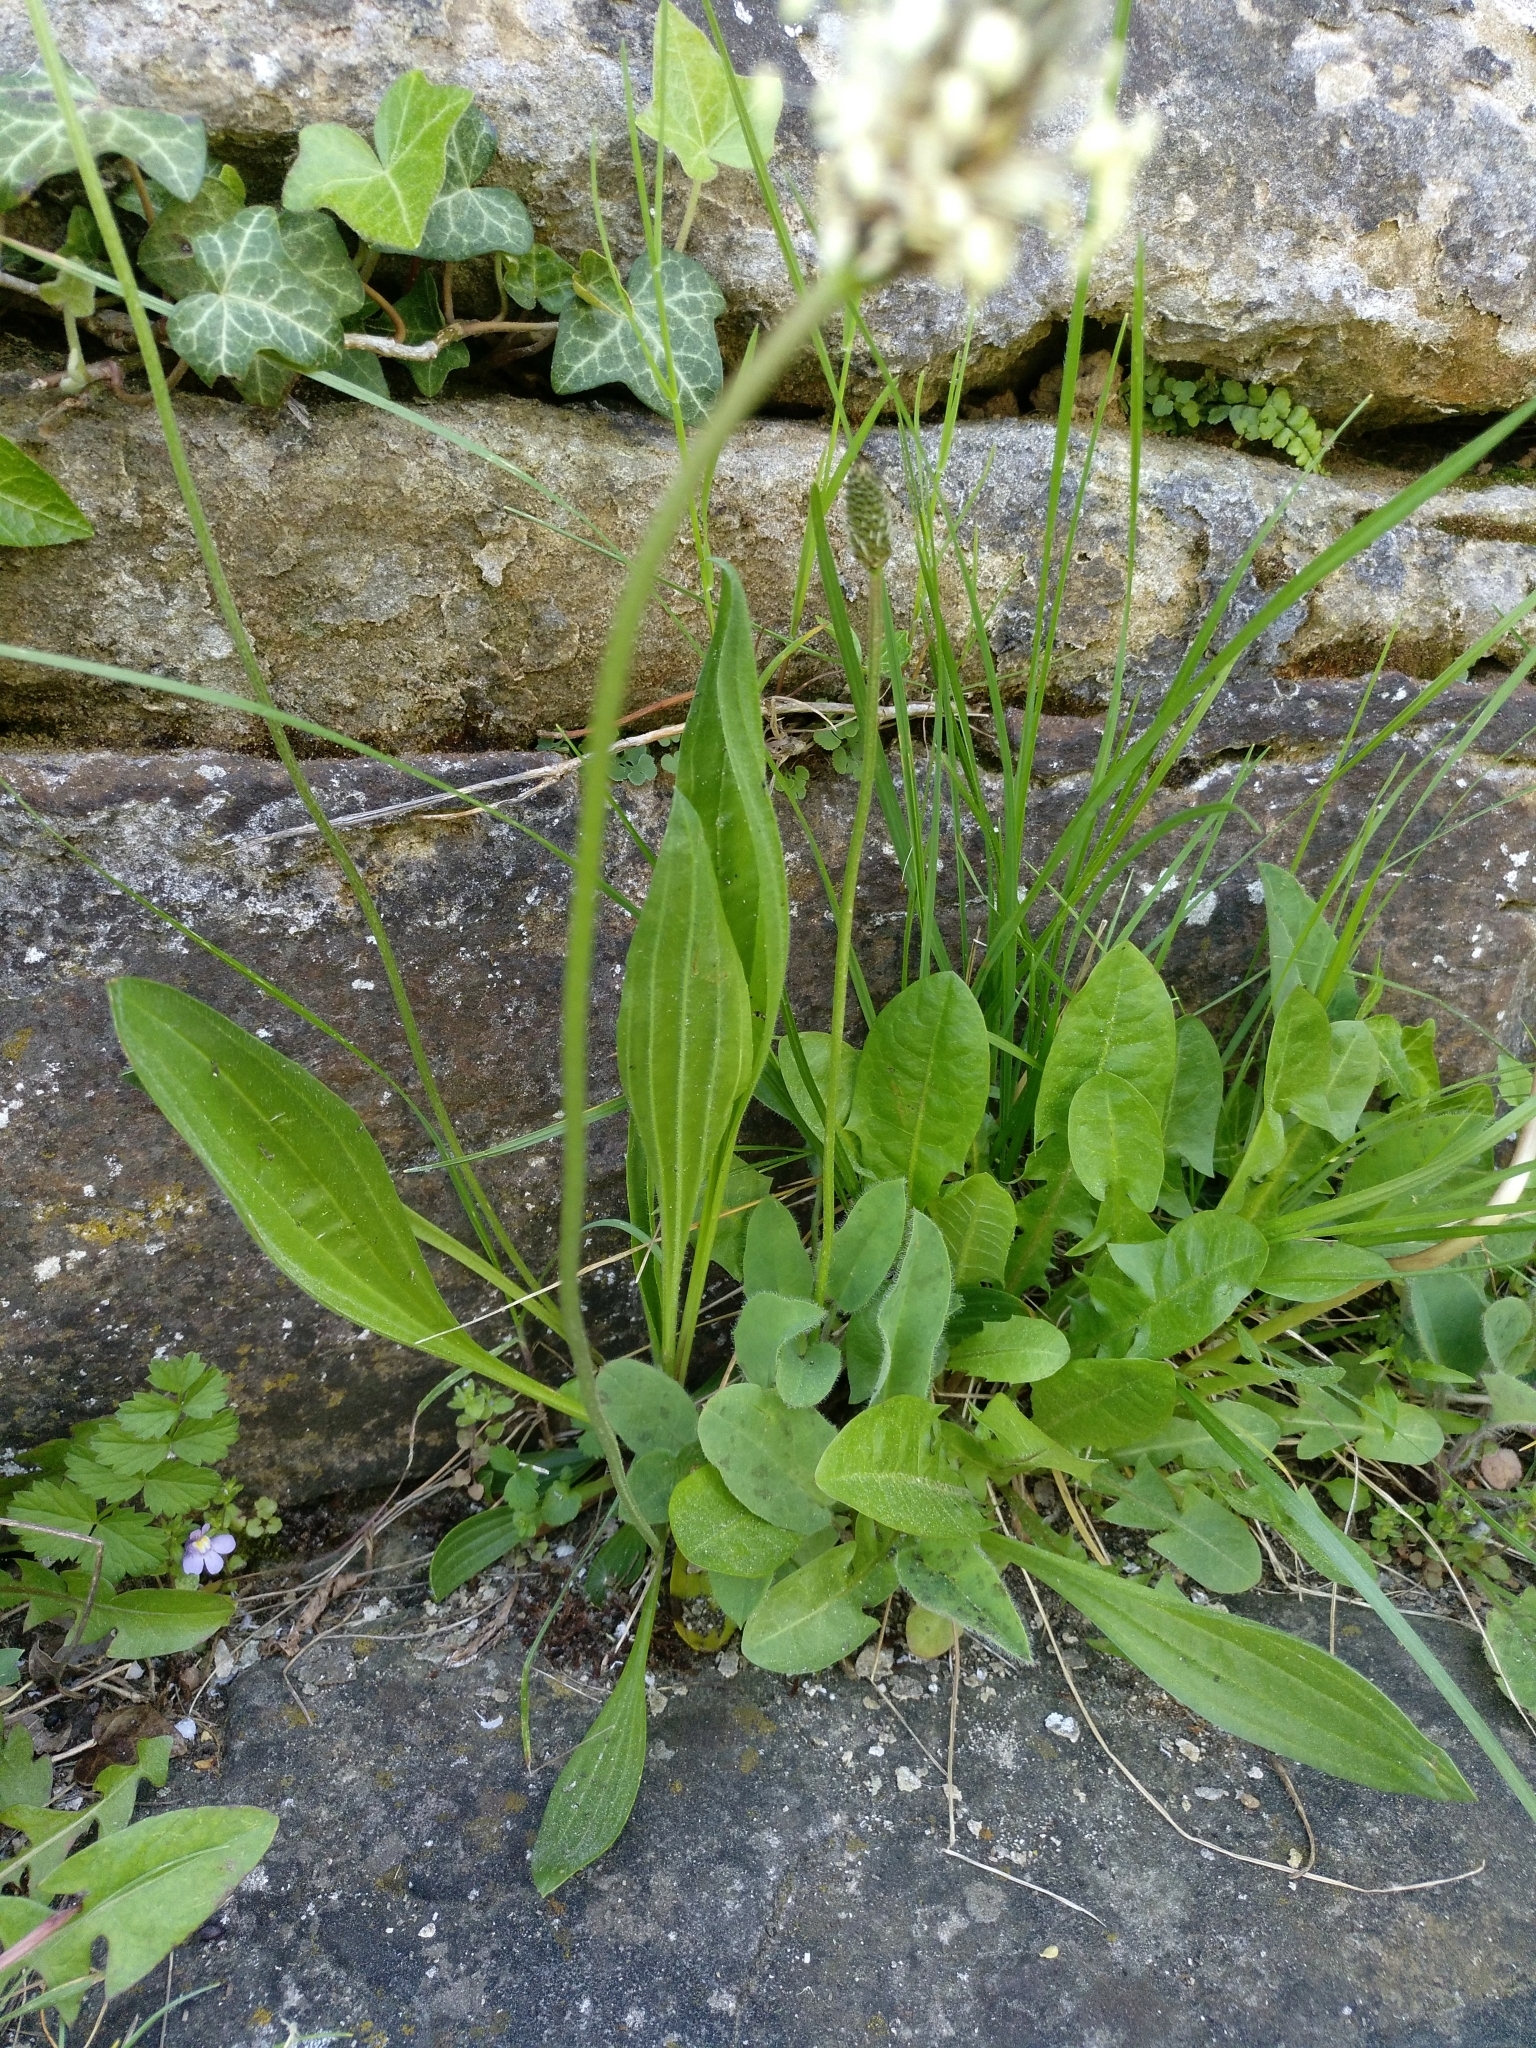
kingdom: Plantae
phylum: Tracheophyta
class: Magnoliopsida
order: Lamiales
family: Plantaginaceae
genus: Plantago
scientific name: Plantago lanceolata
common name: Ribwort plantain
